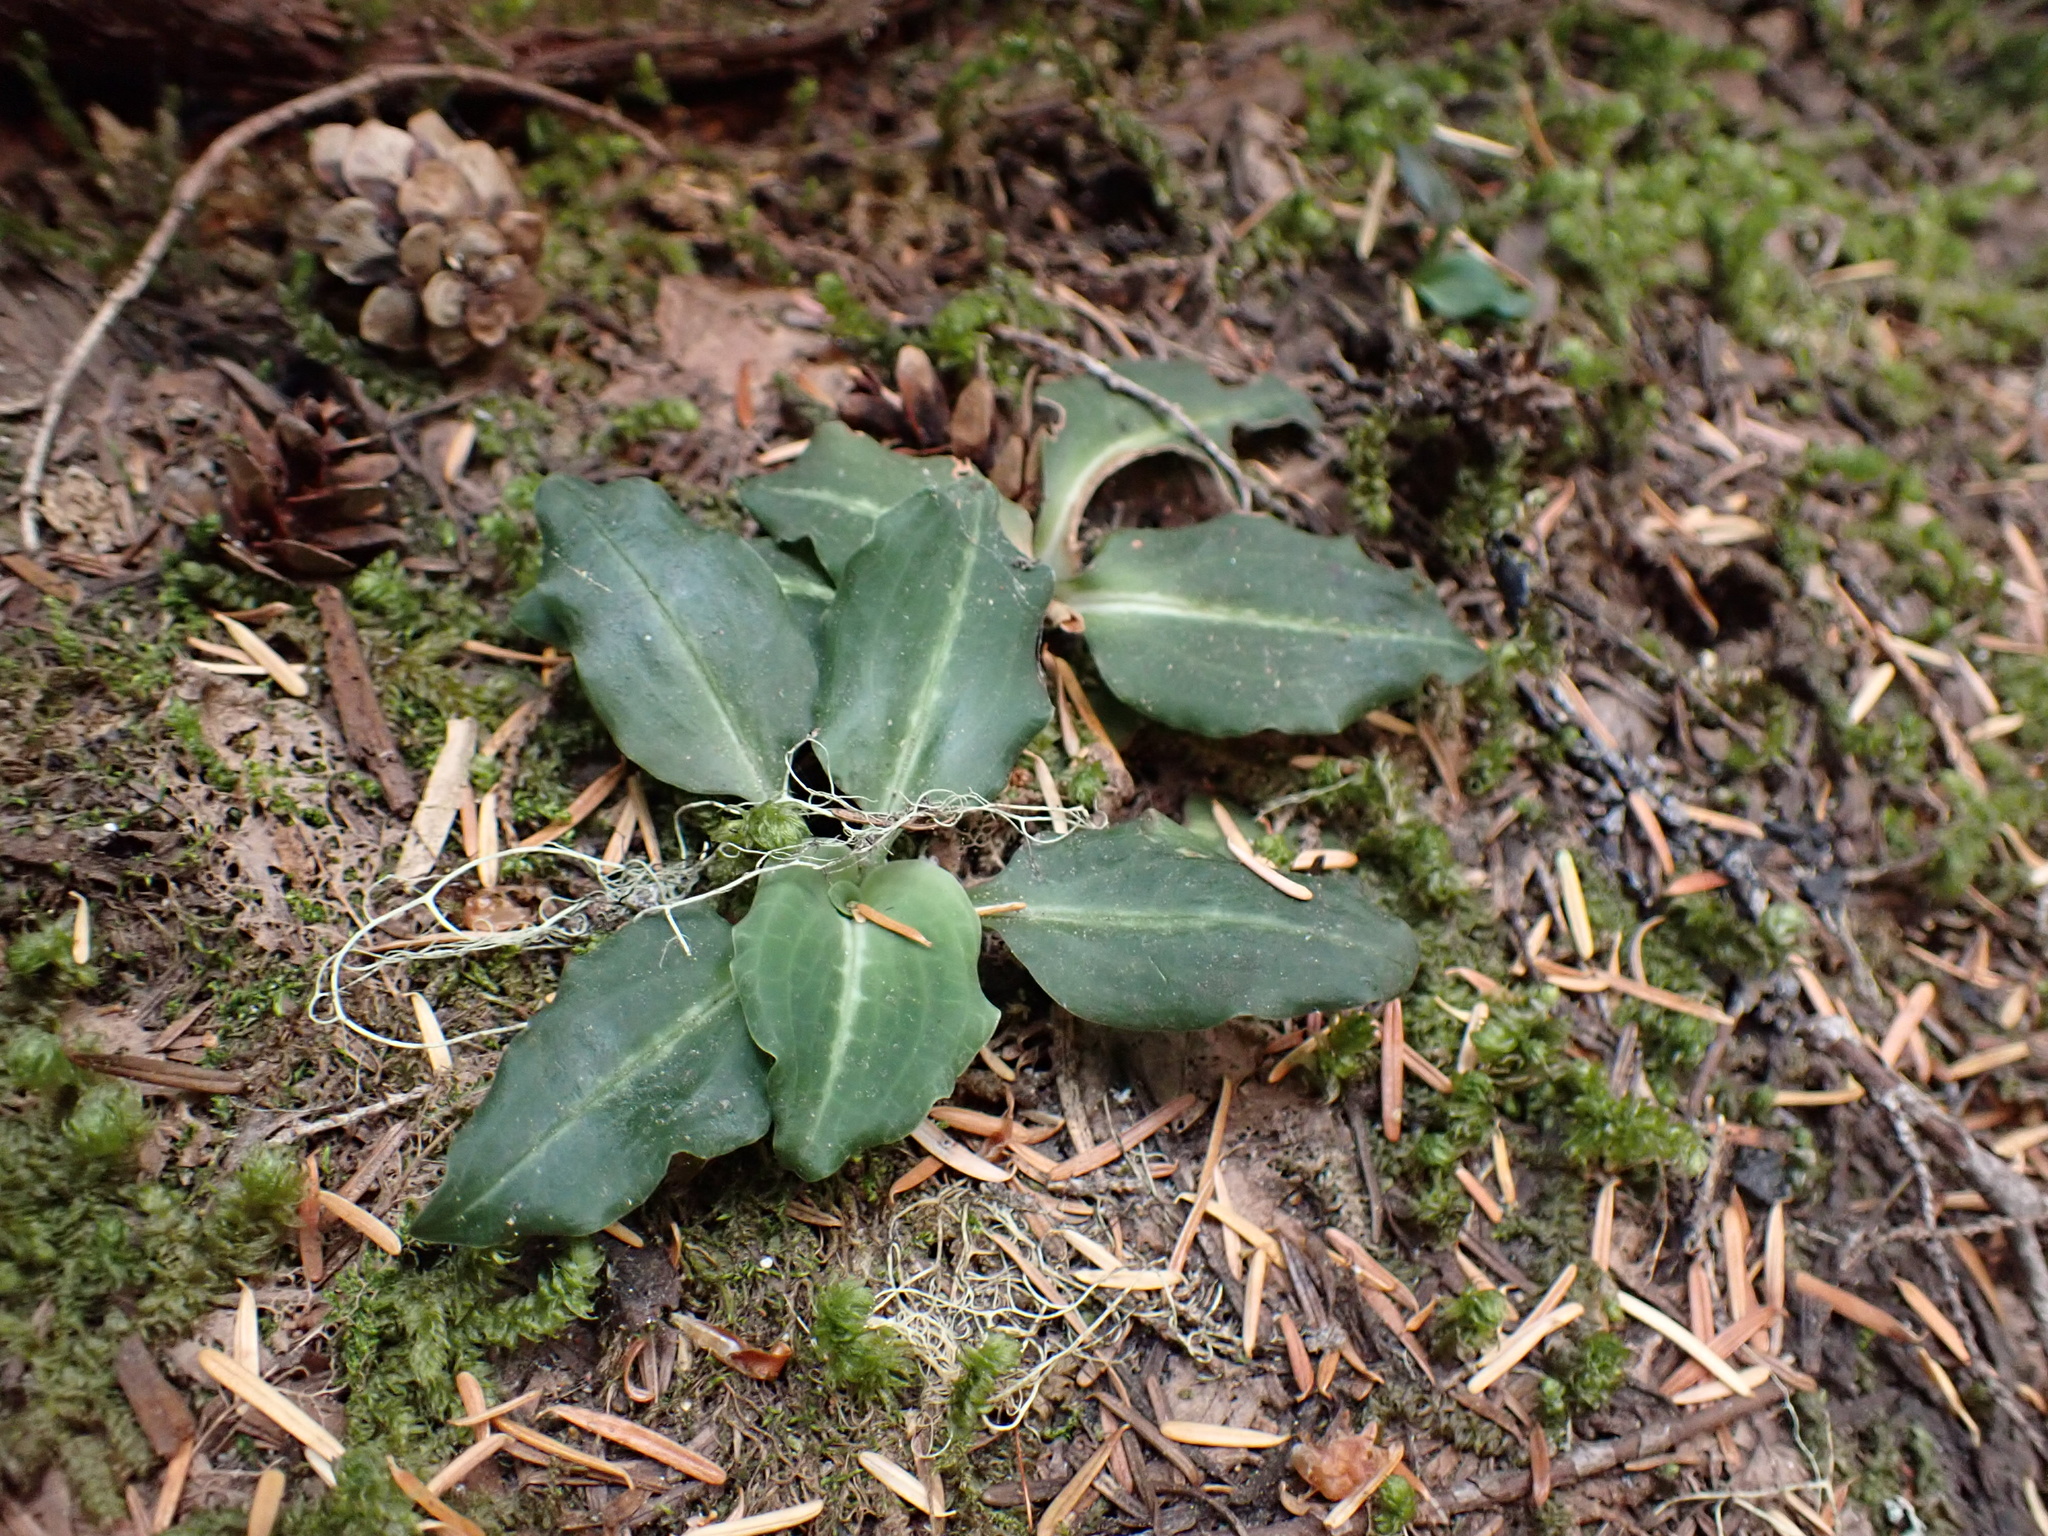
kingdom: Plantae
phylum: Tracheophyta
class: Liliopsida
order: Asparagales
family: Orchidaceae
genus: Goodyera
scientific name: Goodyera oblongifolia
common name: Giant rattlesnake-plantain
